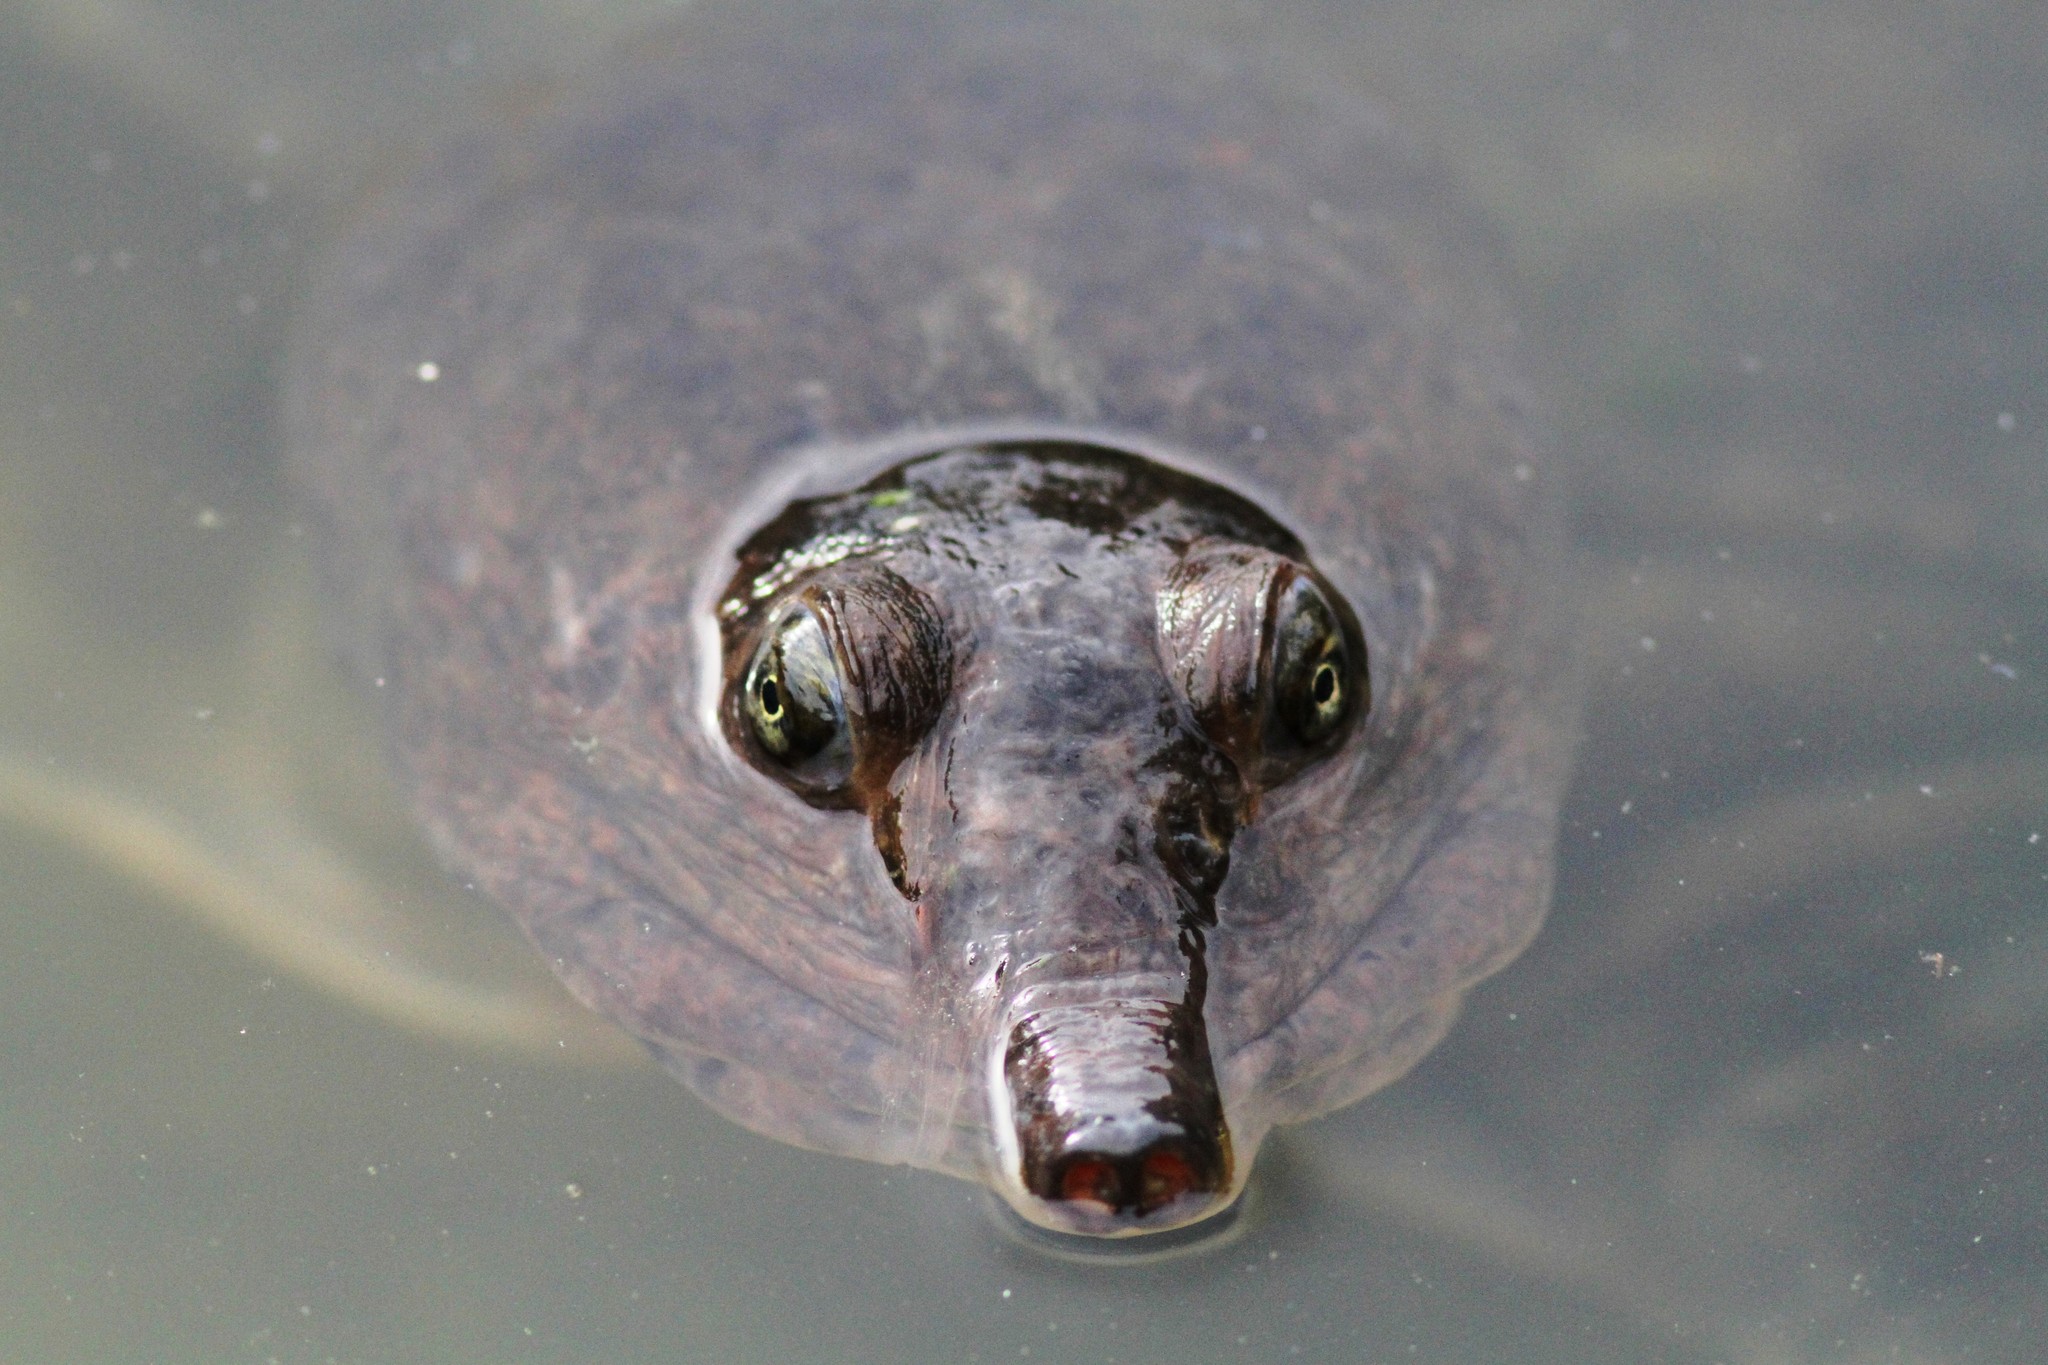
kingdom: Animalia
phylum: Chordata
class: Testudines
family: Trionychidae
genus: Apalone
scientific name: Apalone ferox
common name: Florida softshell turtle
